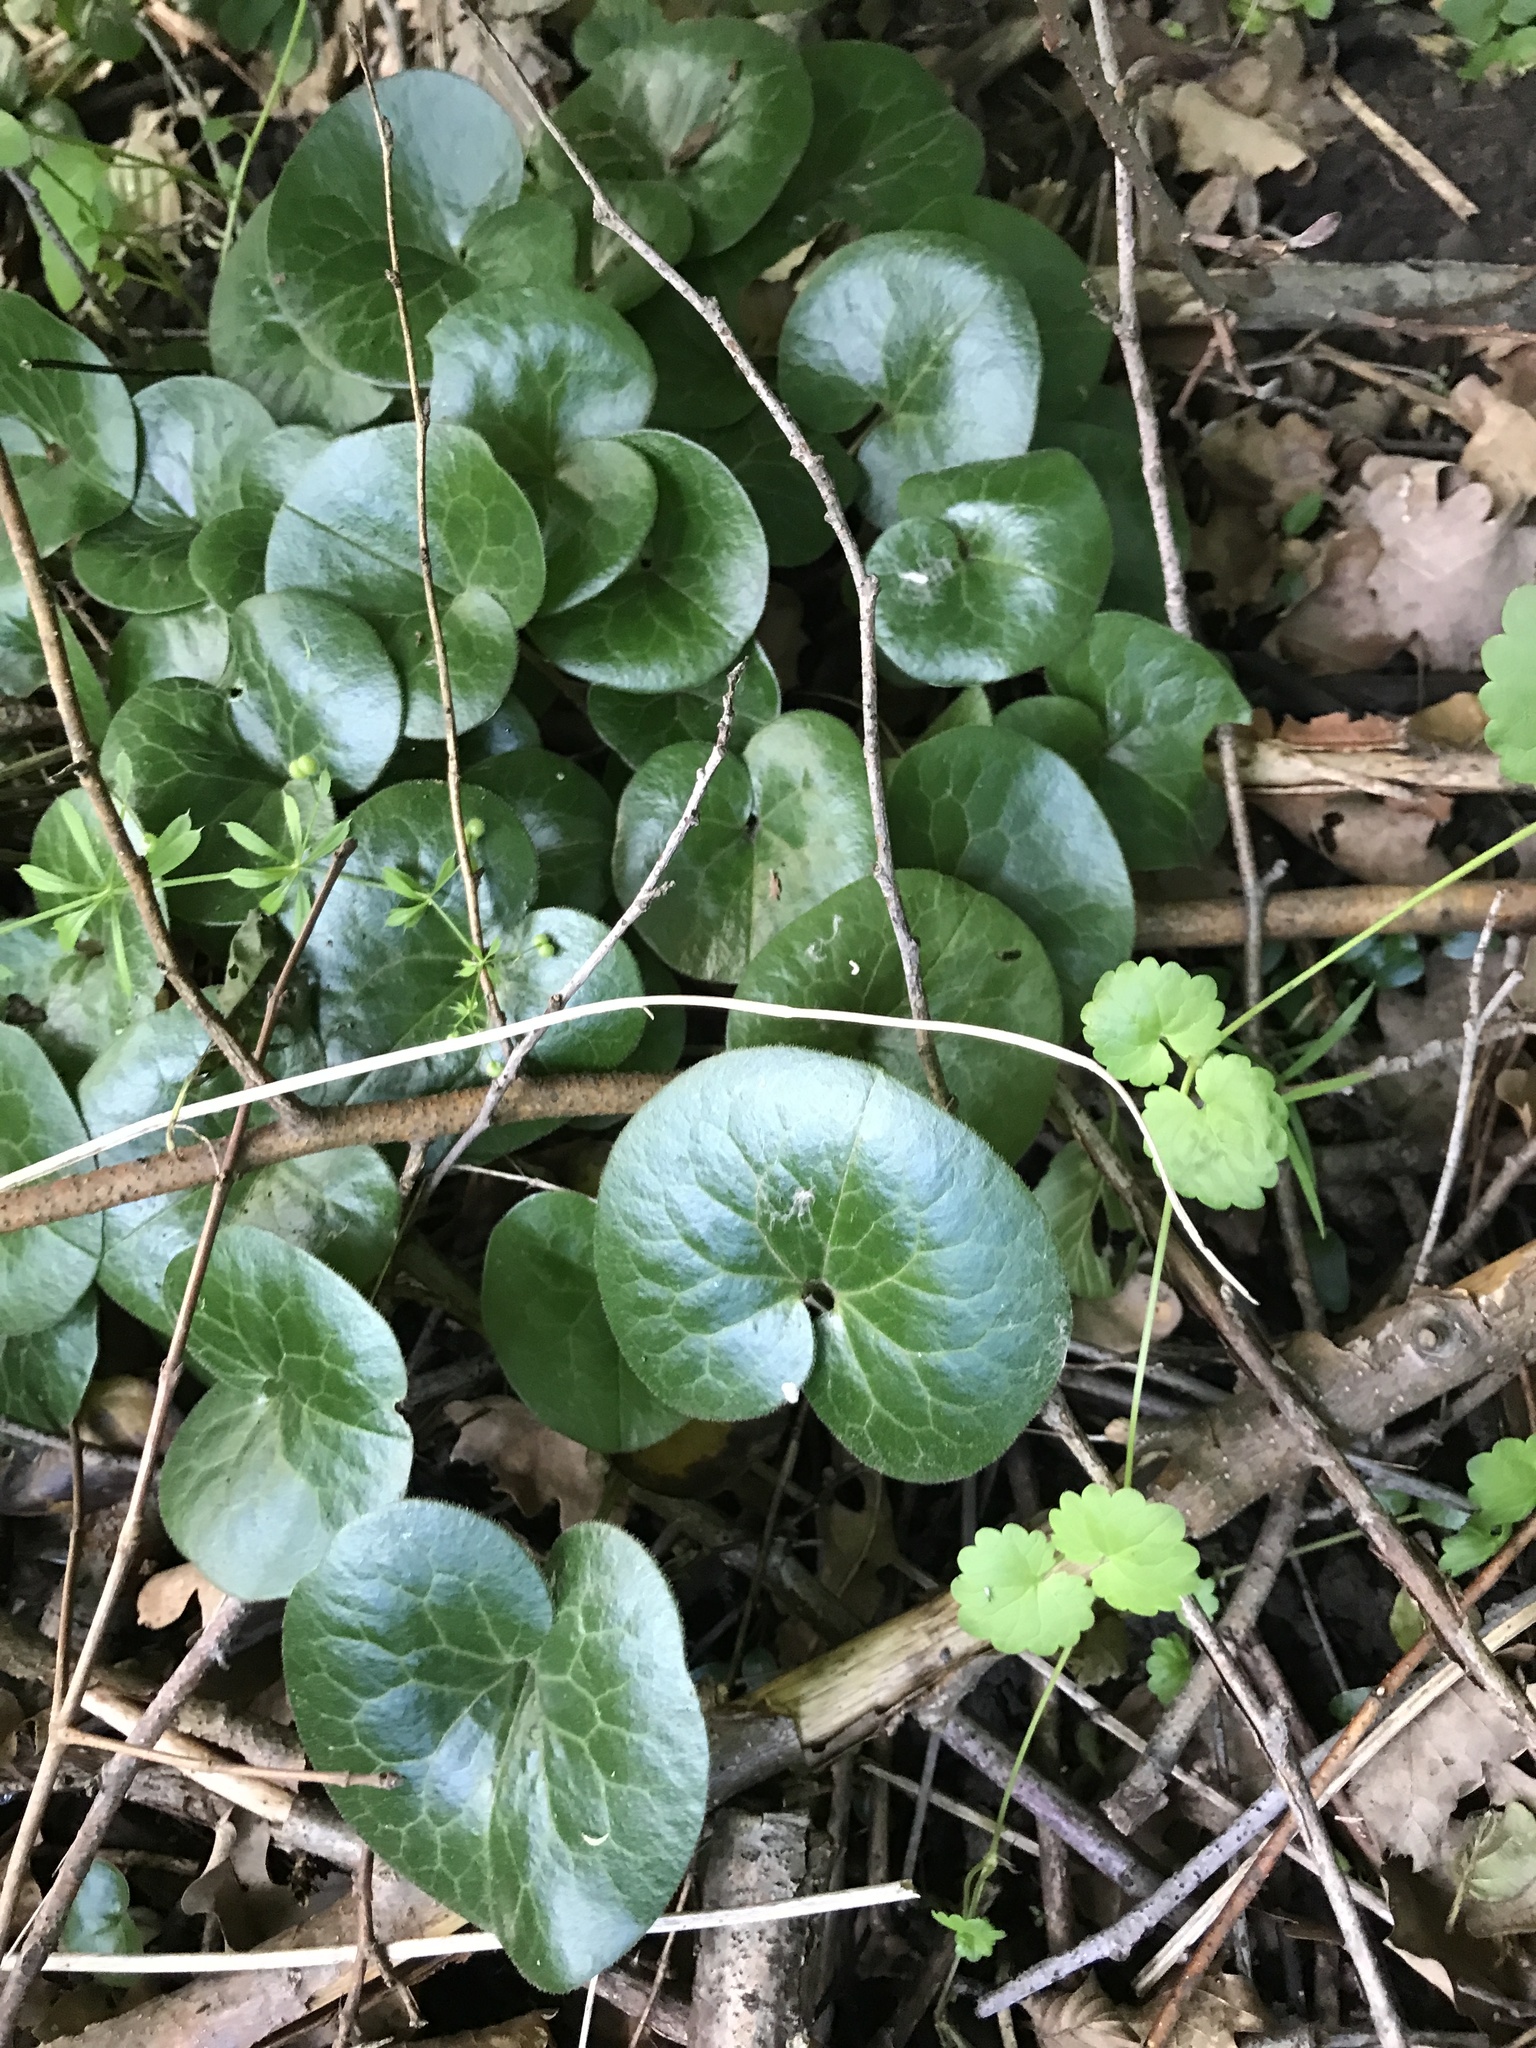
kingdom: Plantae
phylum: Tracheophyta
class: Magnoliopsida
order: Piperales
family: Aristolochiaceae
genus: Asarum
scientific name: Asarum europaeum
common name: Asarabacca
